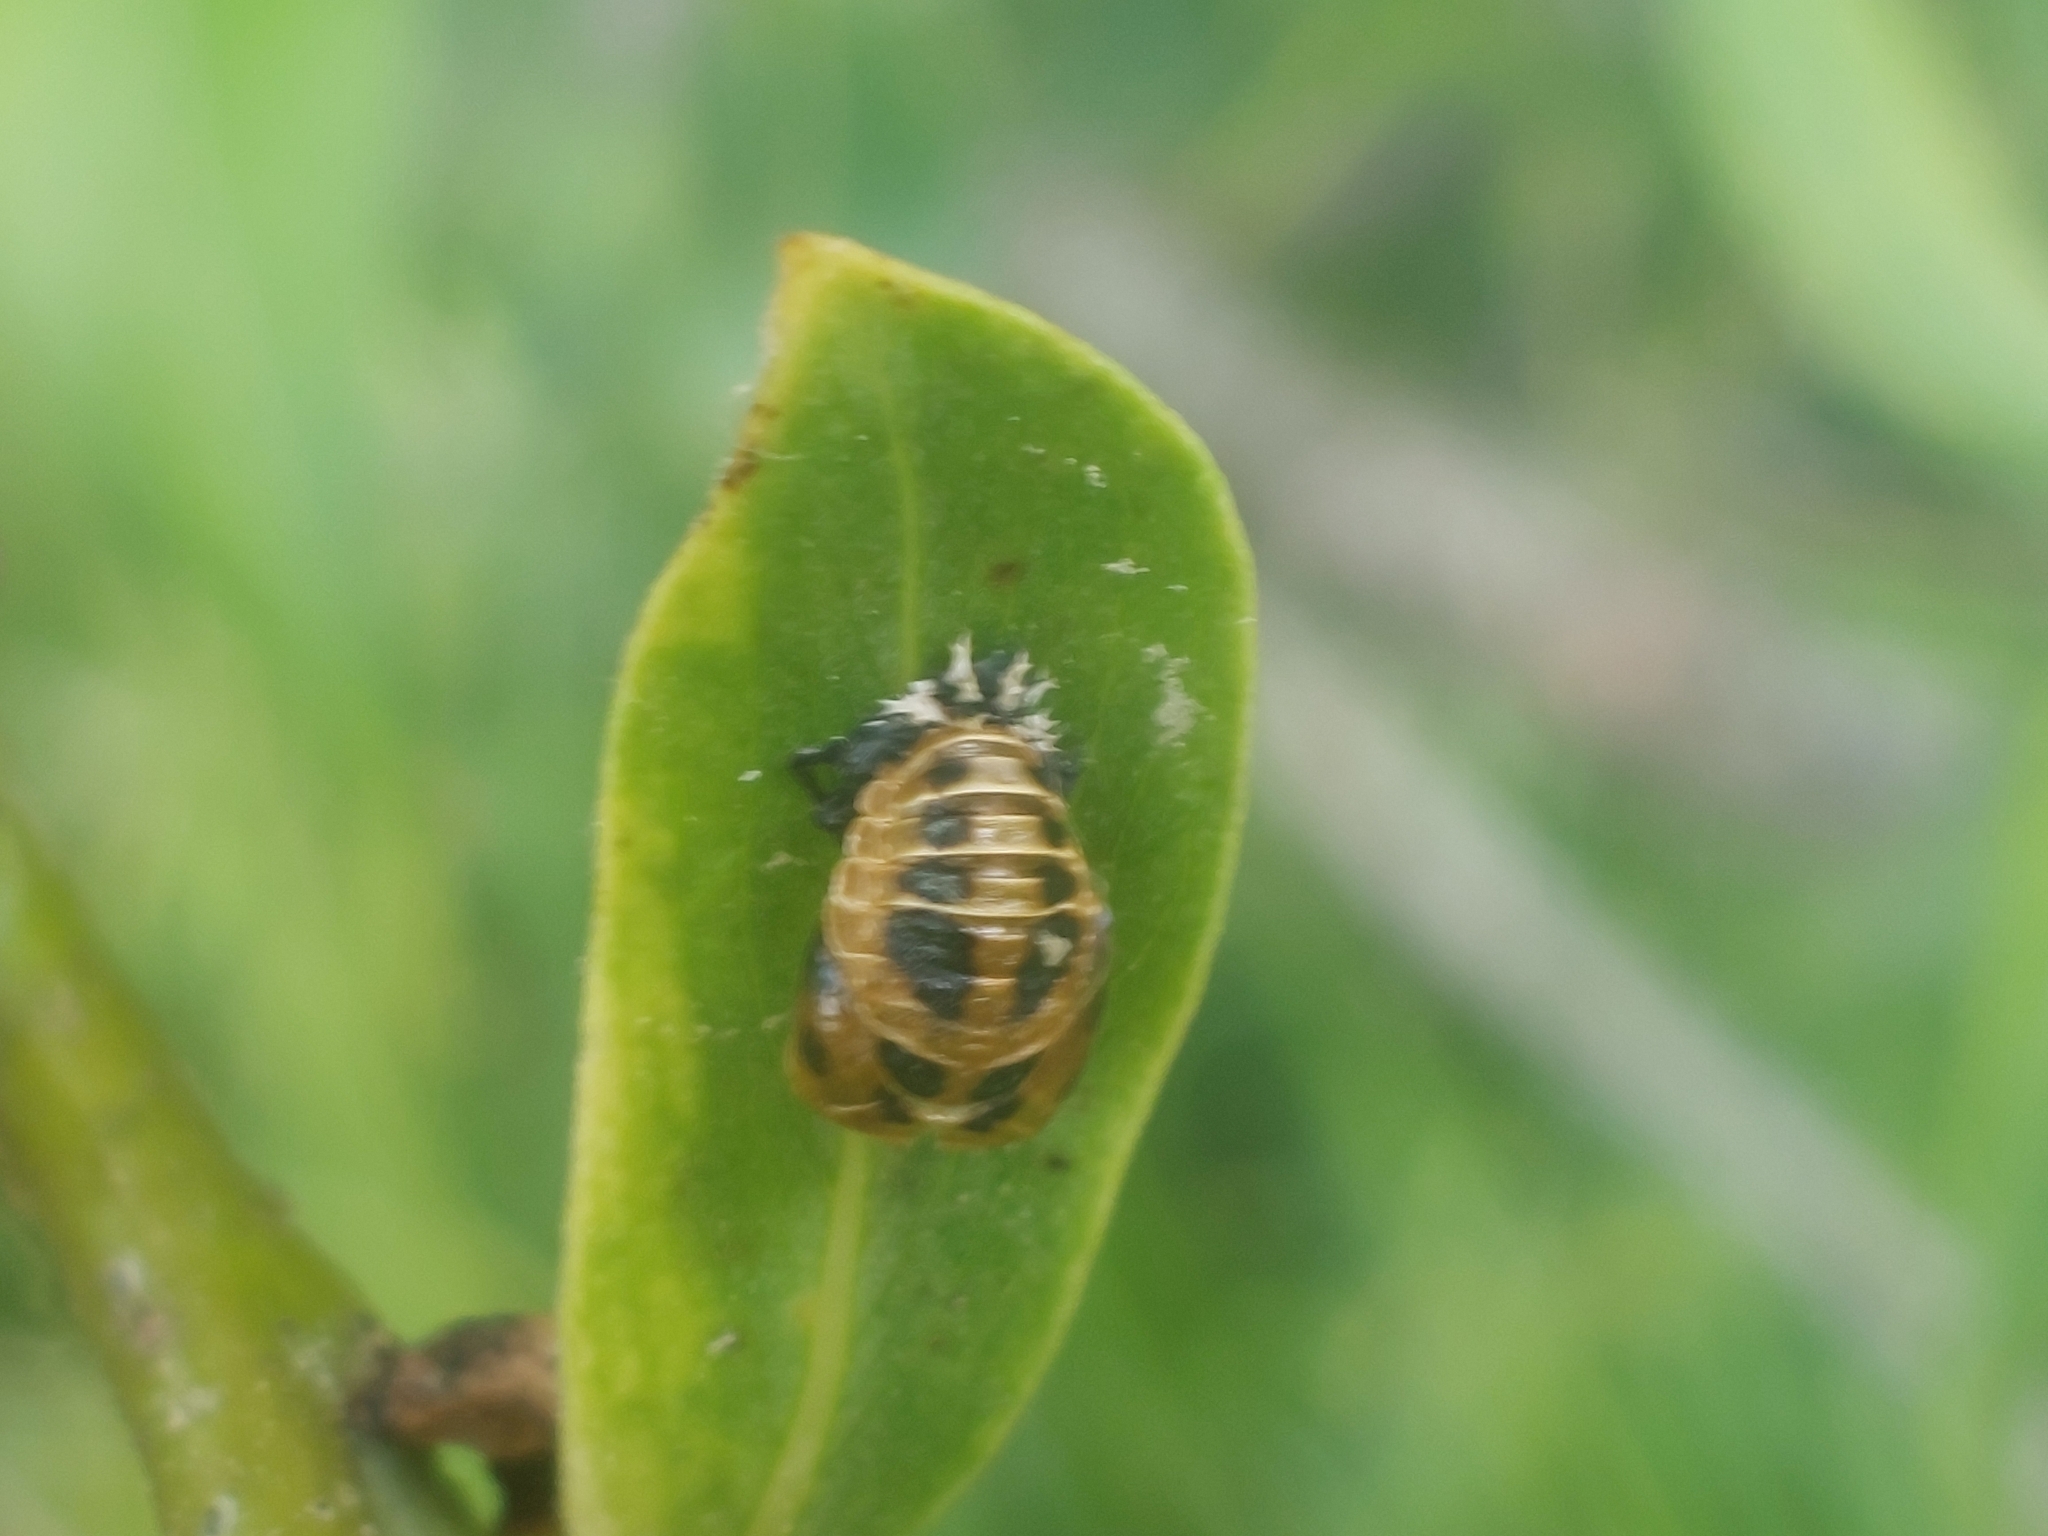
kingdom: Animalia
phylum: Arthropoda
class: Insecta
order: Coleoptera
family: Coccinellidae
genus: Harmonia
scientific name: Harmonia axyridis
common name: Harlequin ladybird
